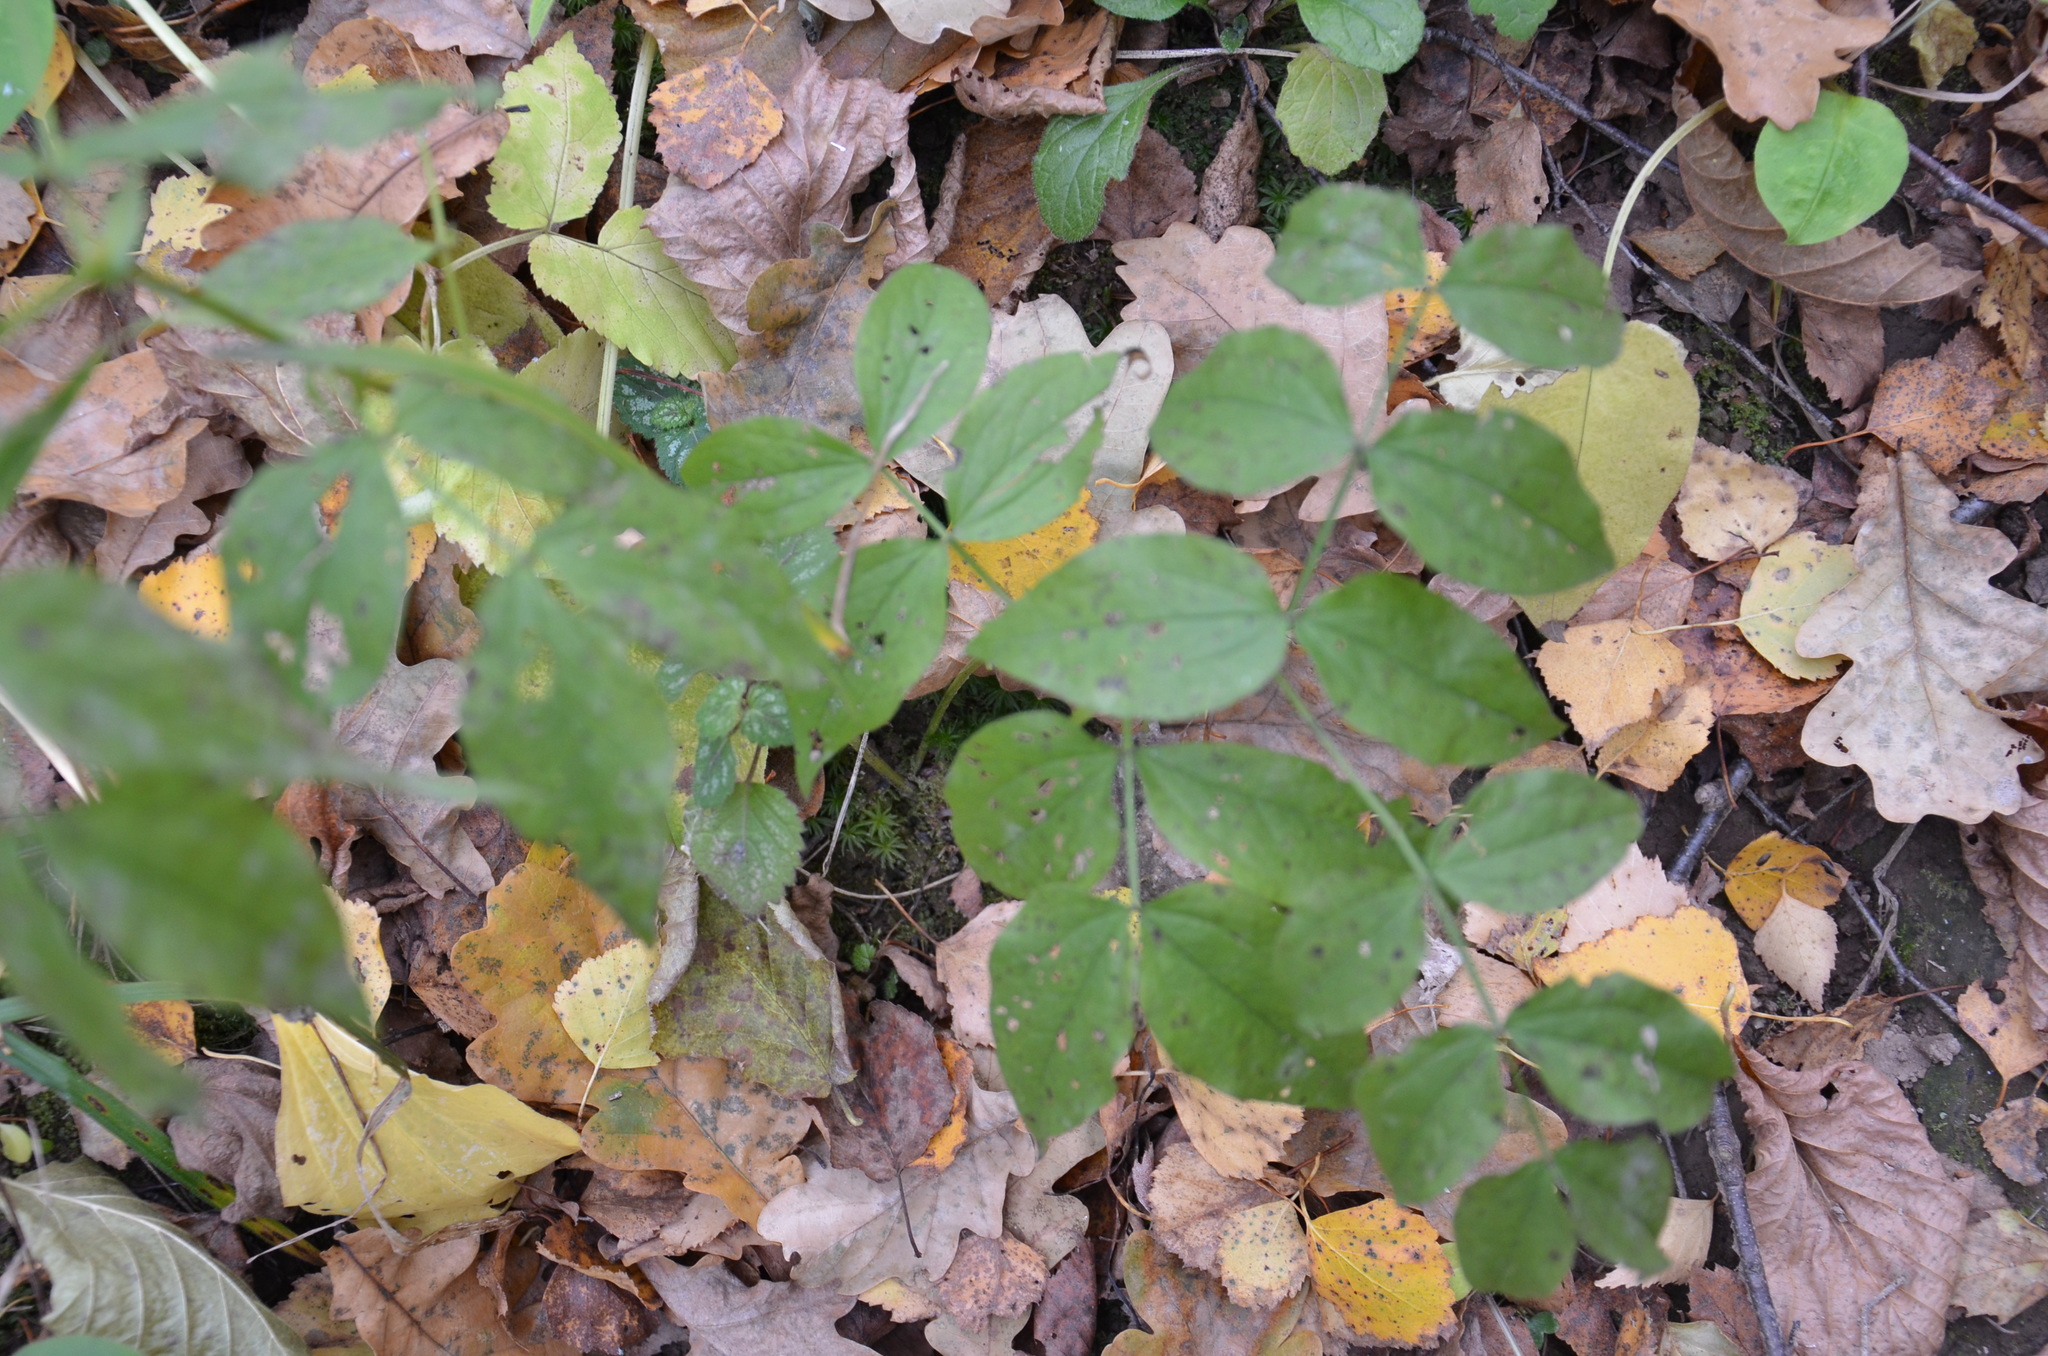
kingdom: Plantae
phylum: Tracheophyta
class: Magnoliopsida
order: Fabales
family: Fabaceae
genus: Lathyrus
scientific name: Lathyrus vernus
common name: Spring pea
